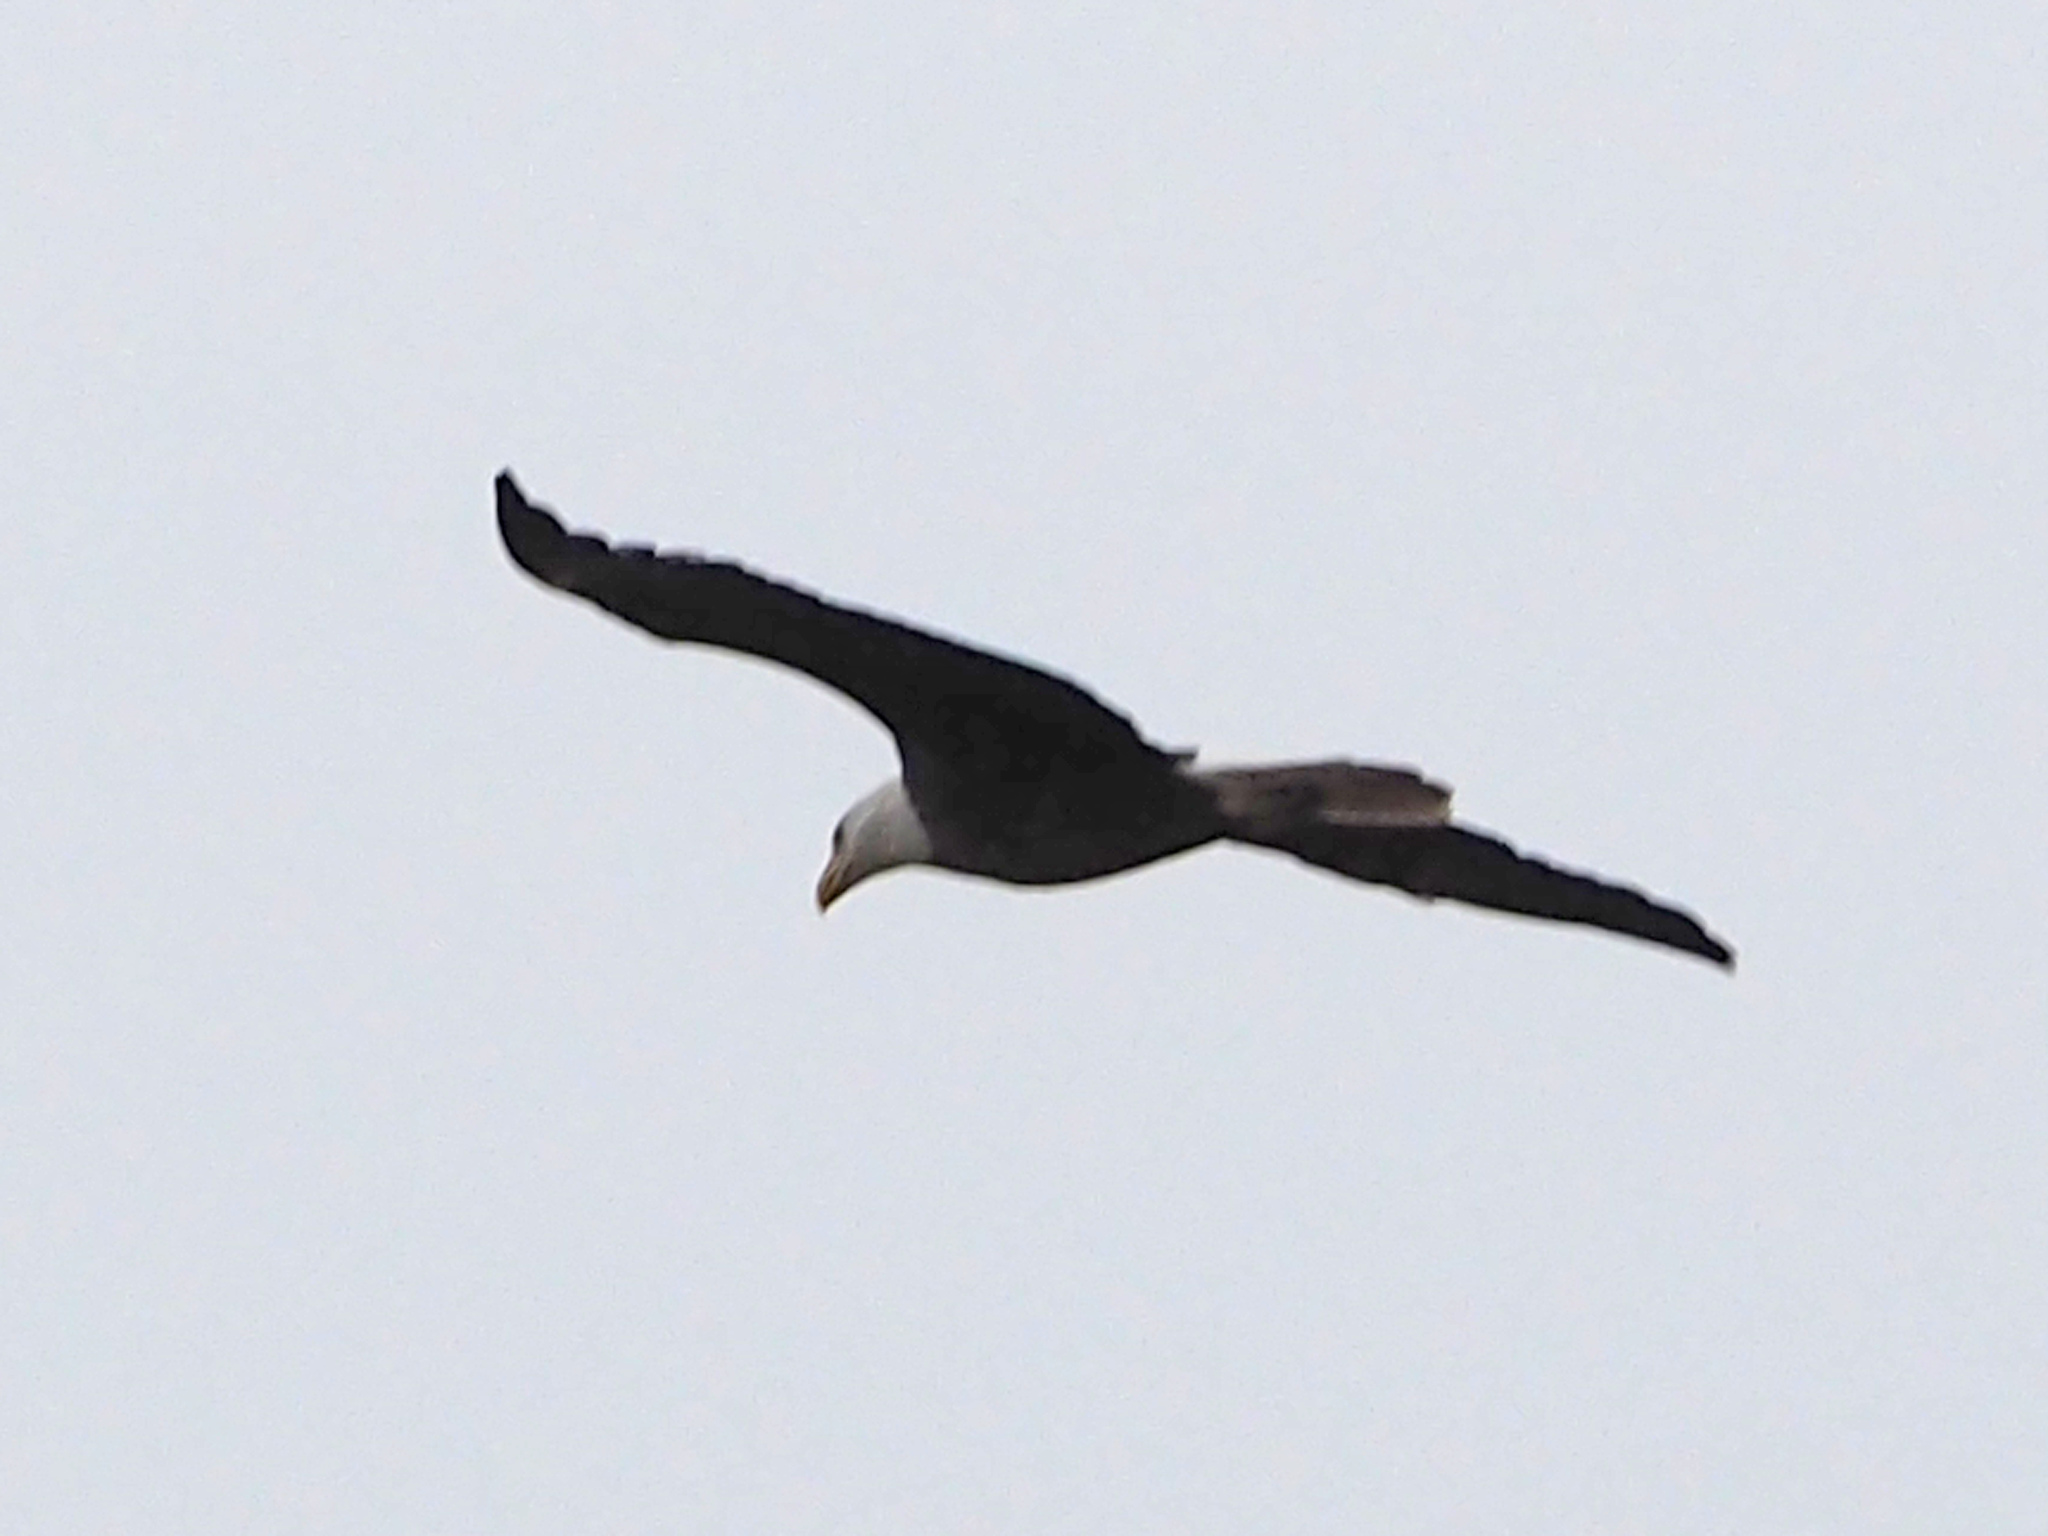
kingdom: Animalia
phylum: Chordata
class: Aves
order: Accipitriformes
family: Accipitridae
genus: Haliaeetus
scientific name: Haliaeetus leucocephalus
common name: Bald eagle
